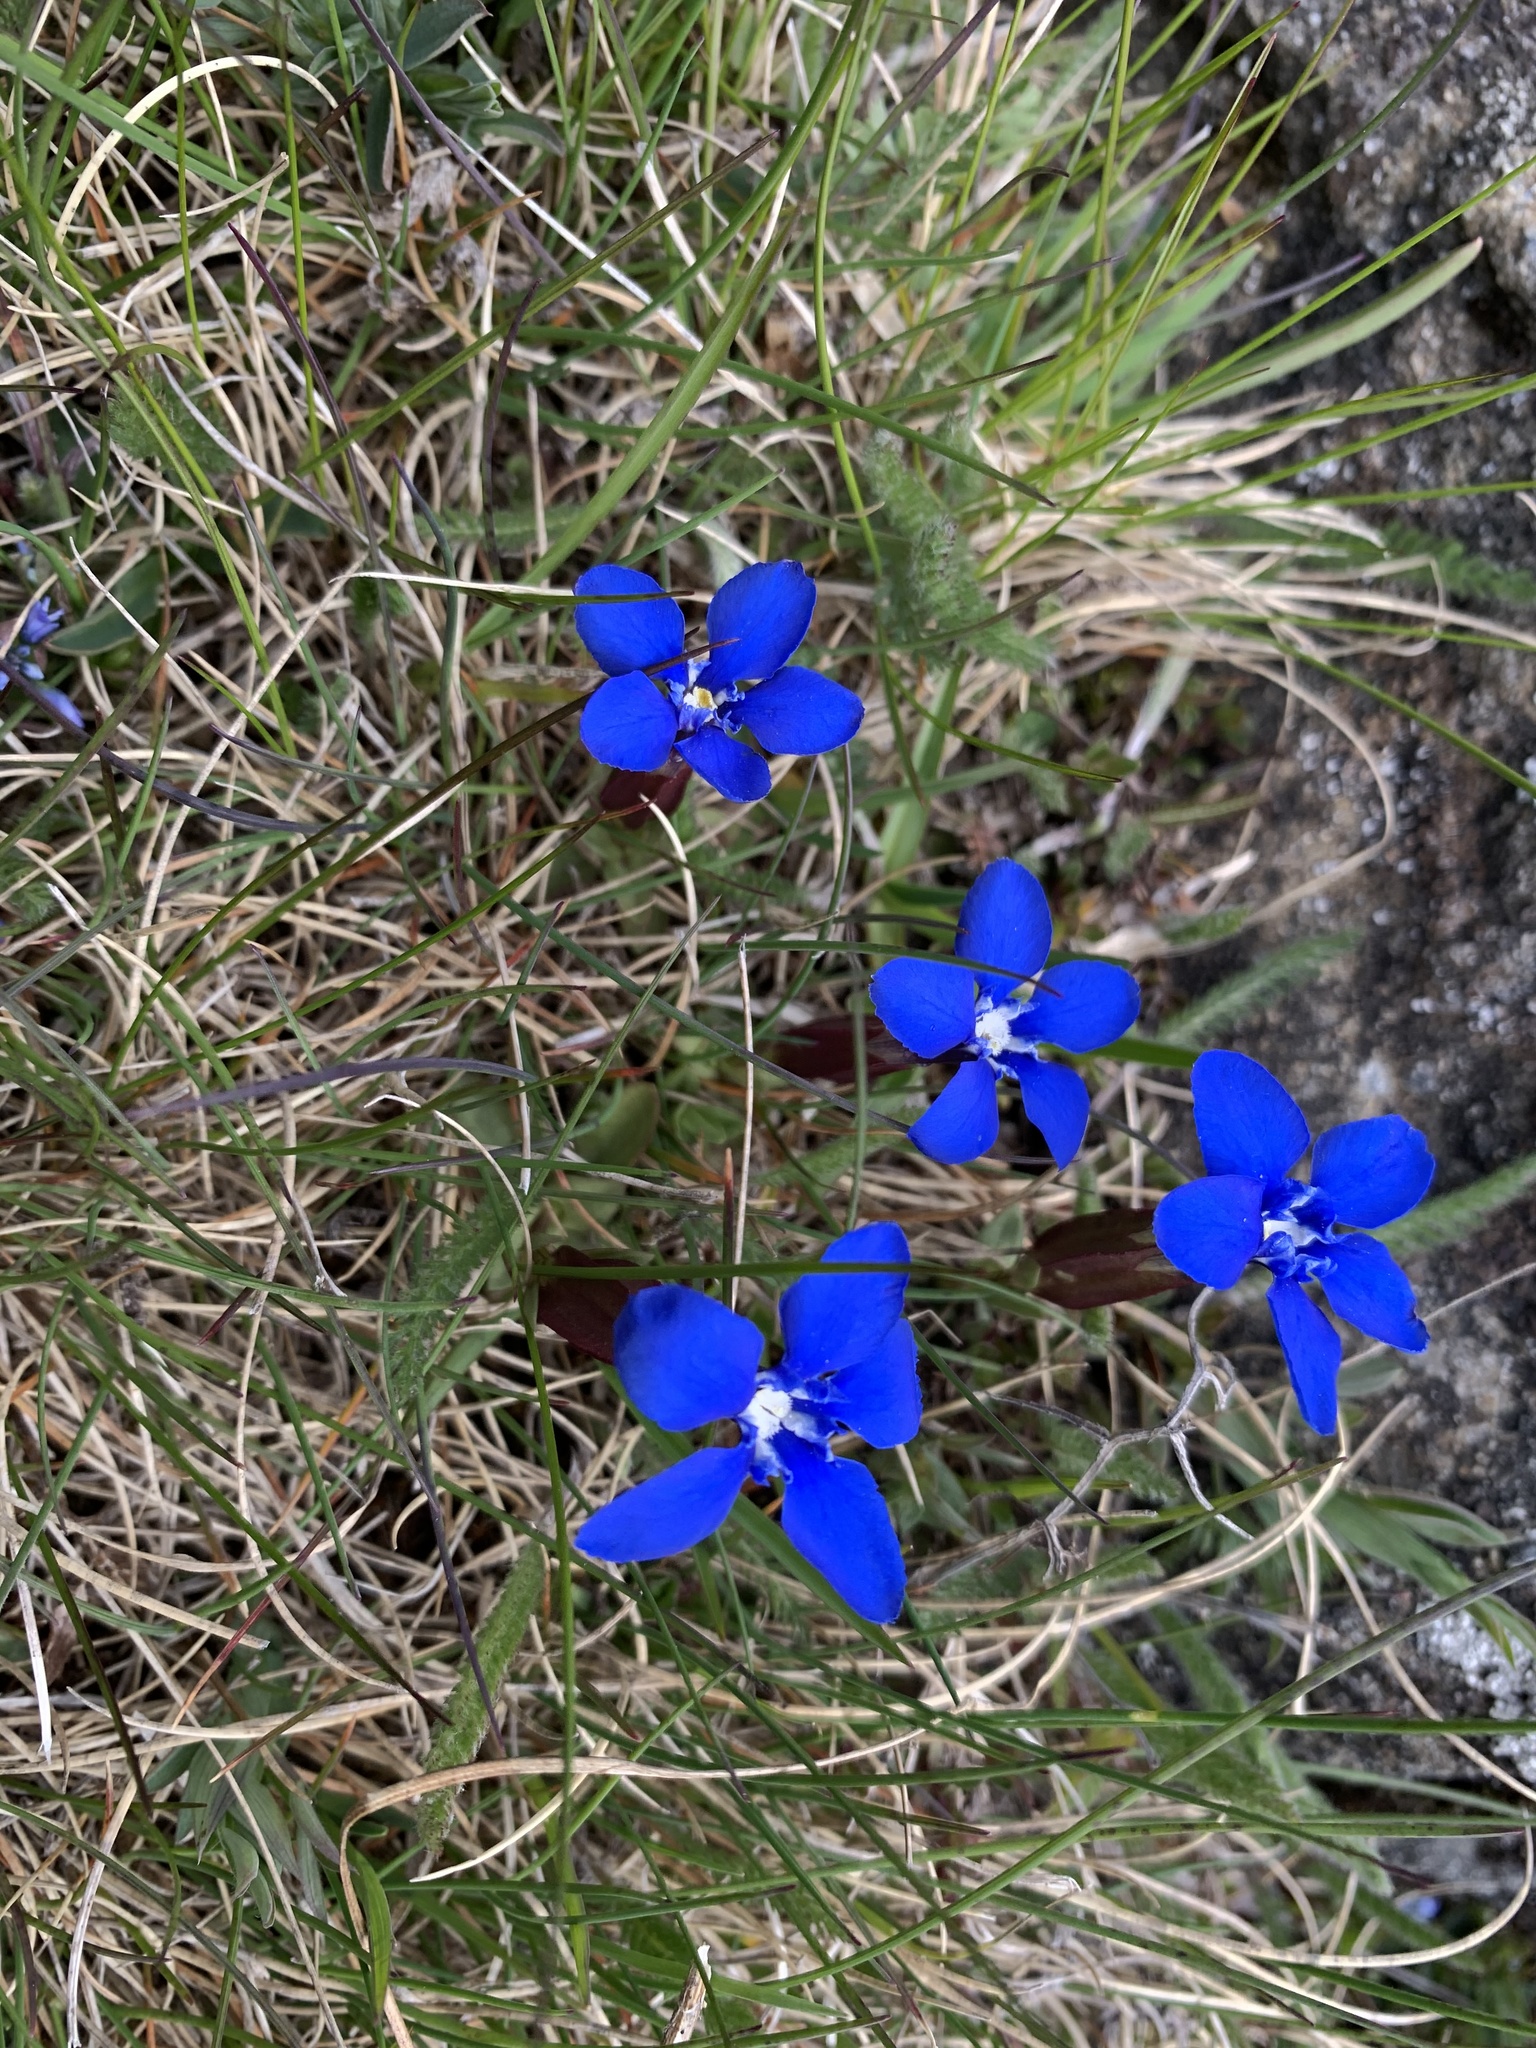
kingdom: Plantae
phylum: Tracheophyta
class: Magnoliopsida
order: Gentianales
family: Gentianaceae
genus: Gentiana
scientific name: Gentiana verna
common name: Spring gentian
